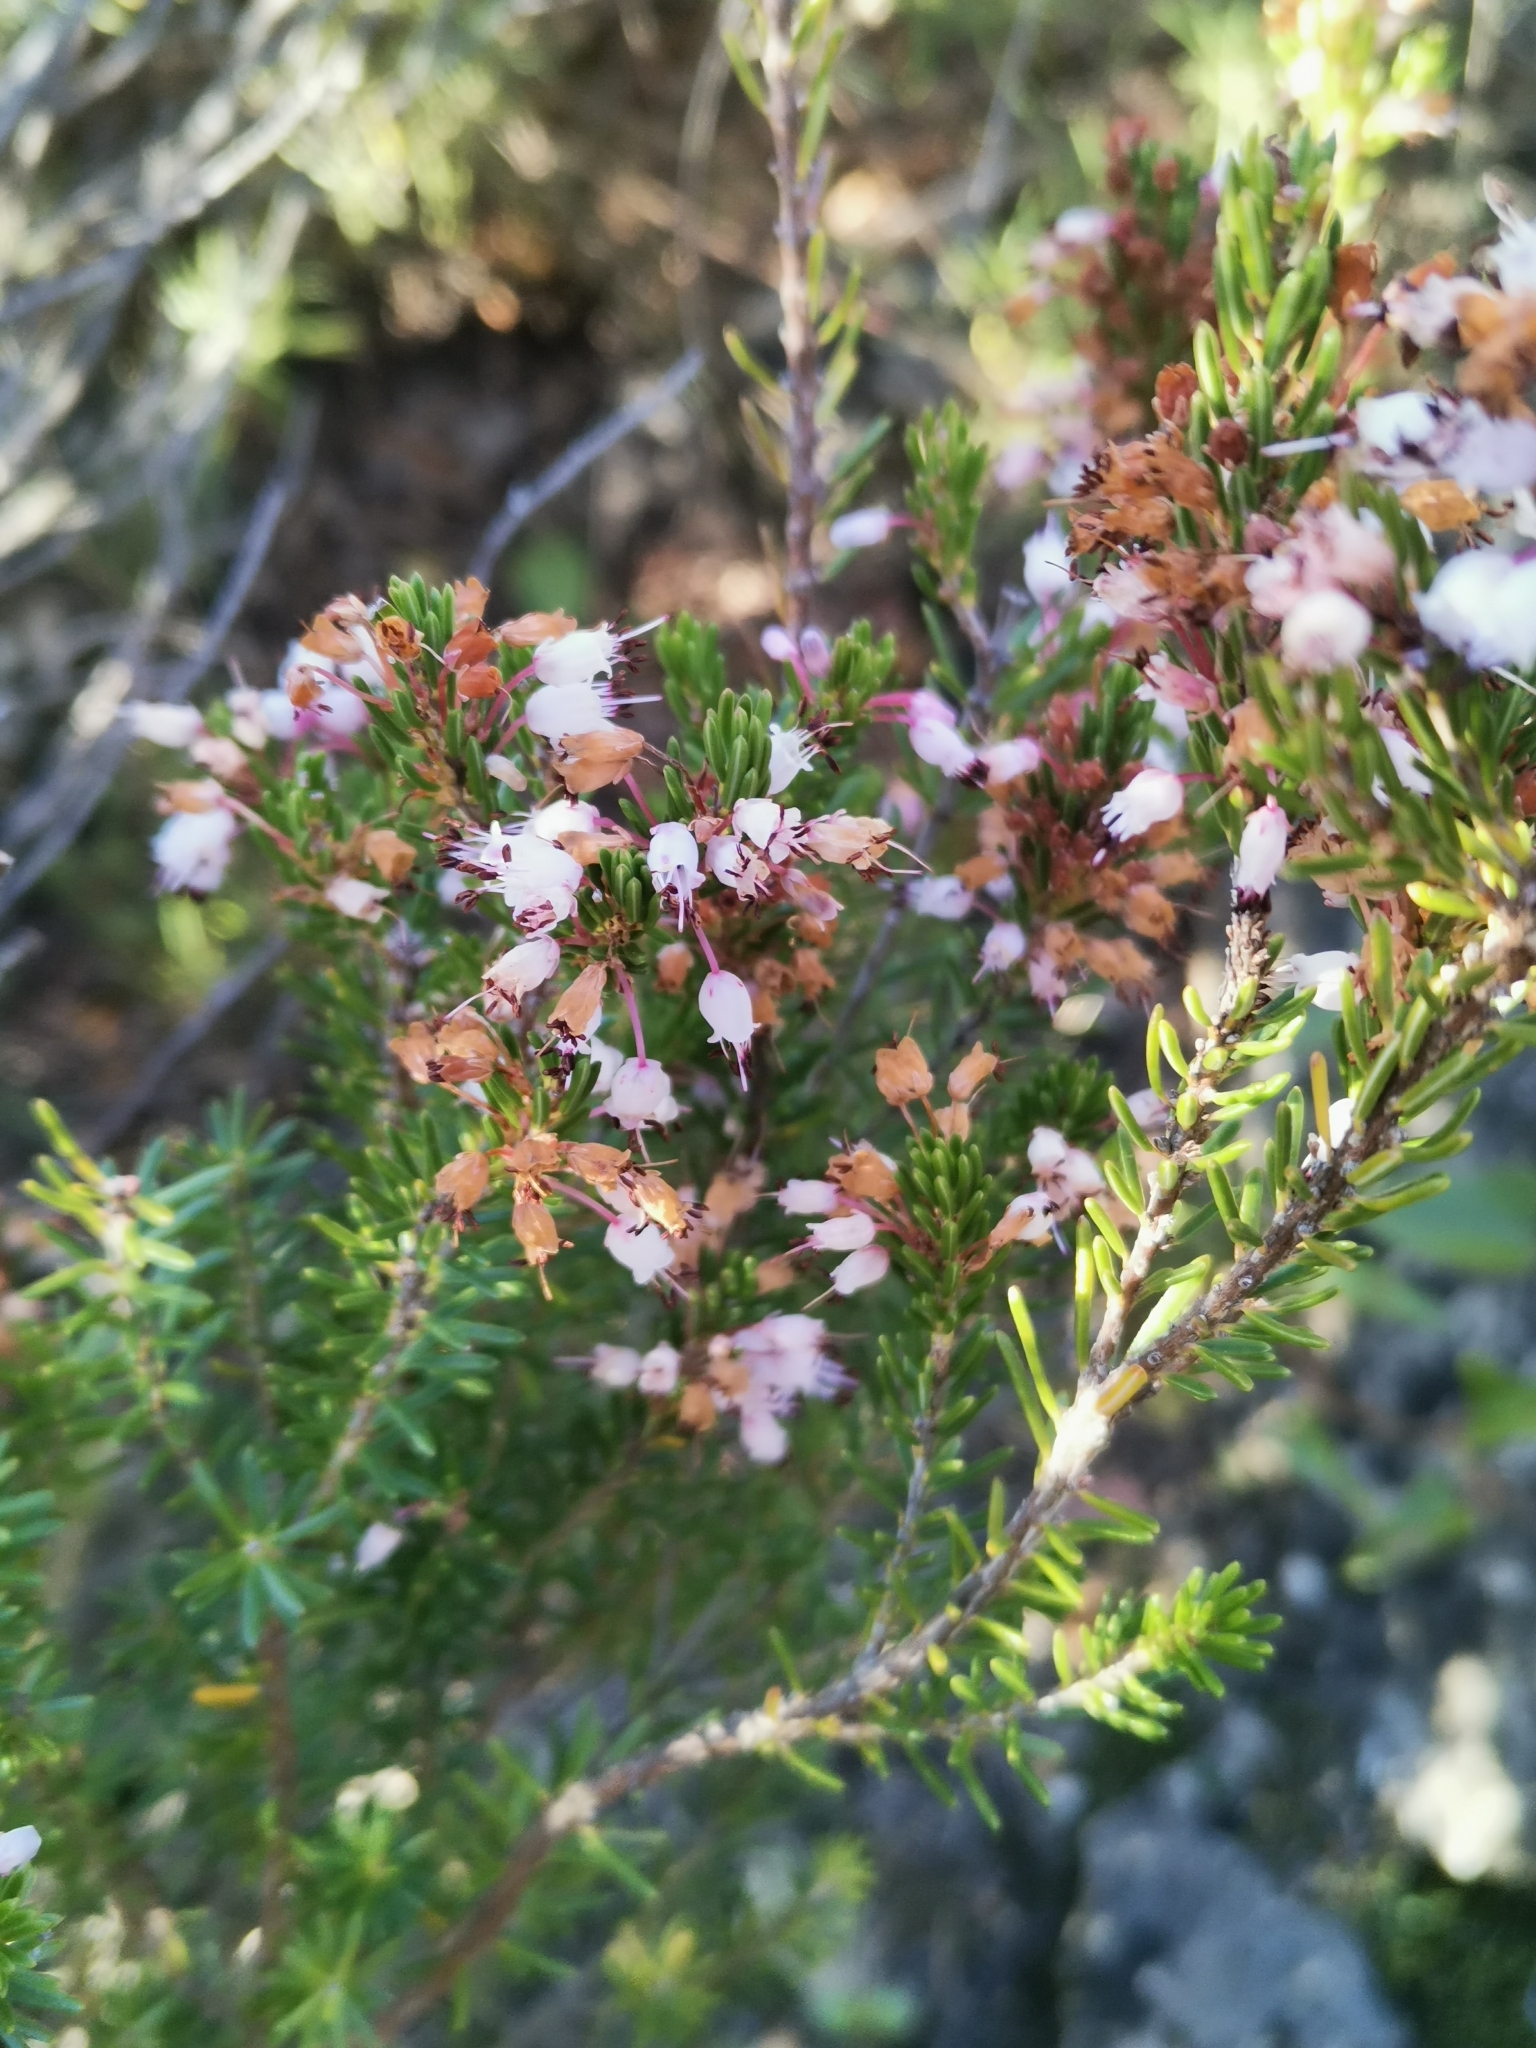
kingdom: Plantae
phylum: Tracheophyta
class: Magnoliopsida
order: Ericales
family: Ericaceae
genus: Erica
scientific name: Erica multiflora
